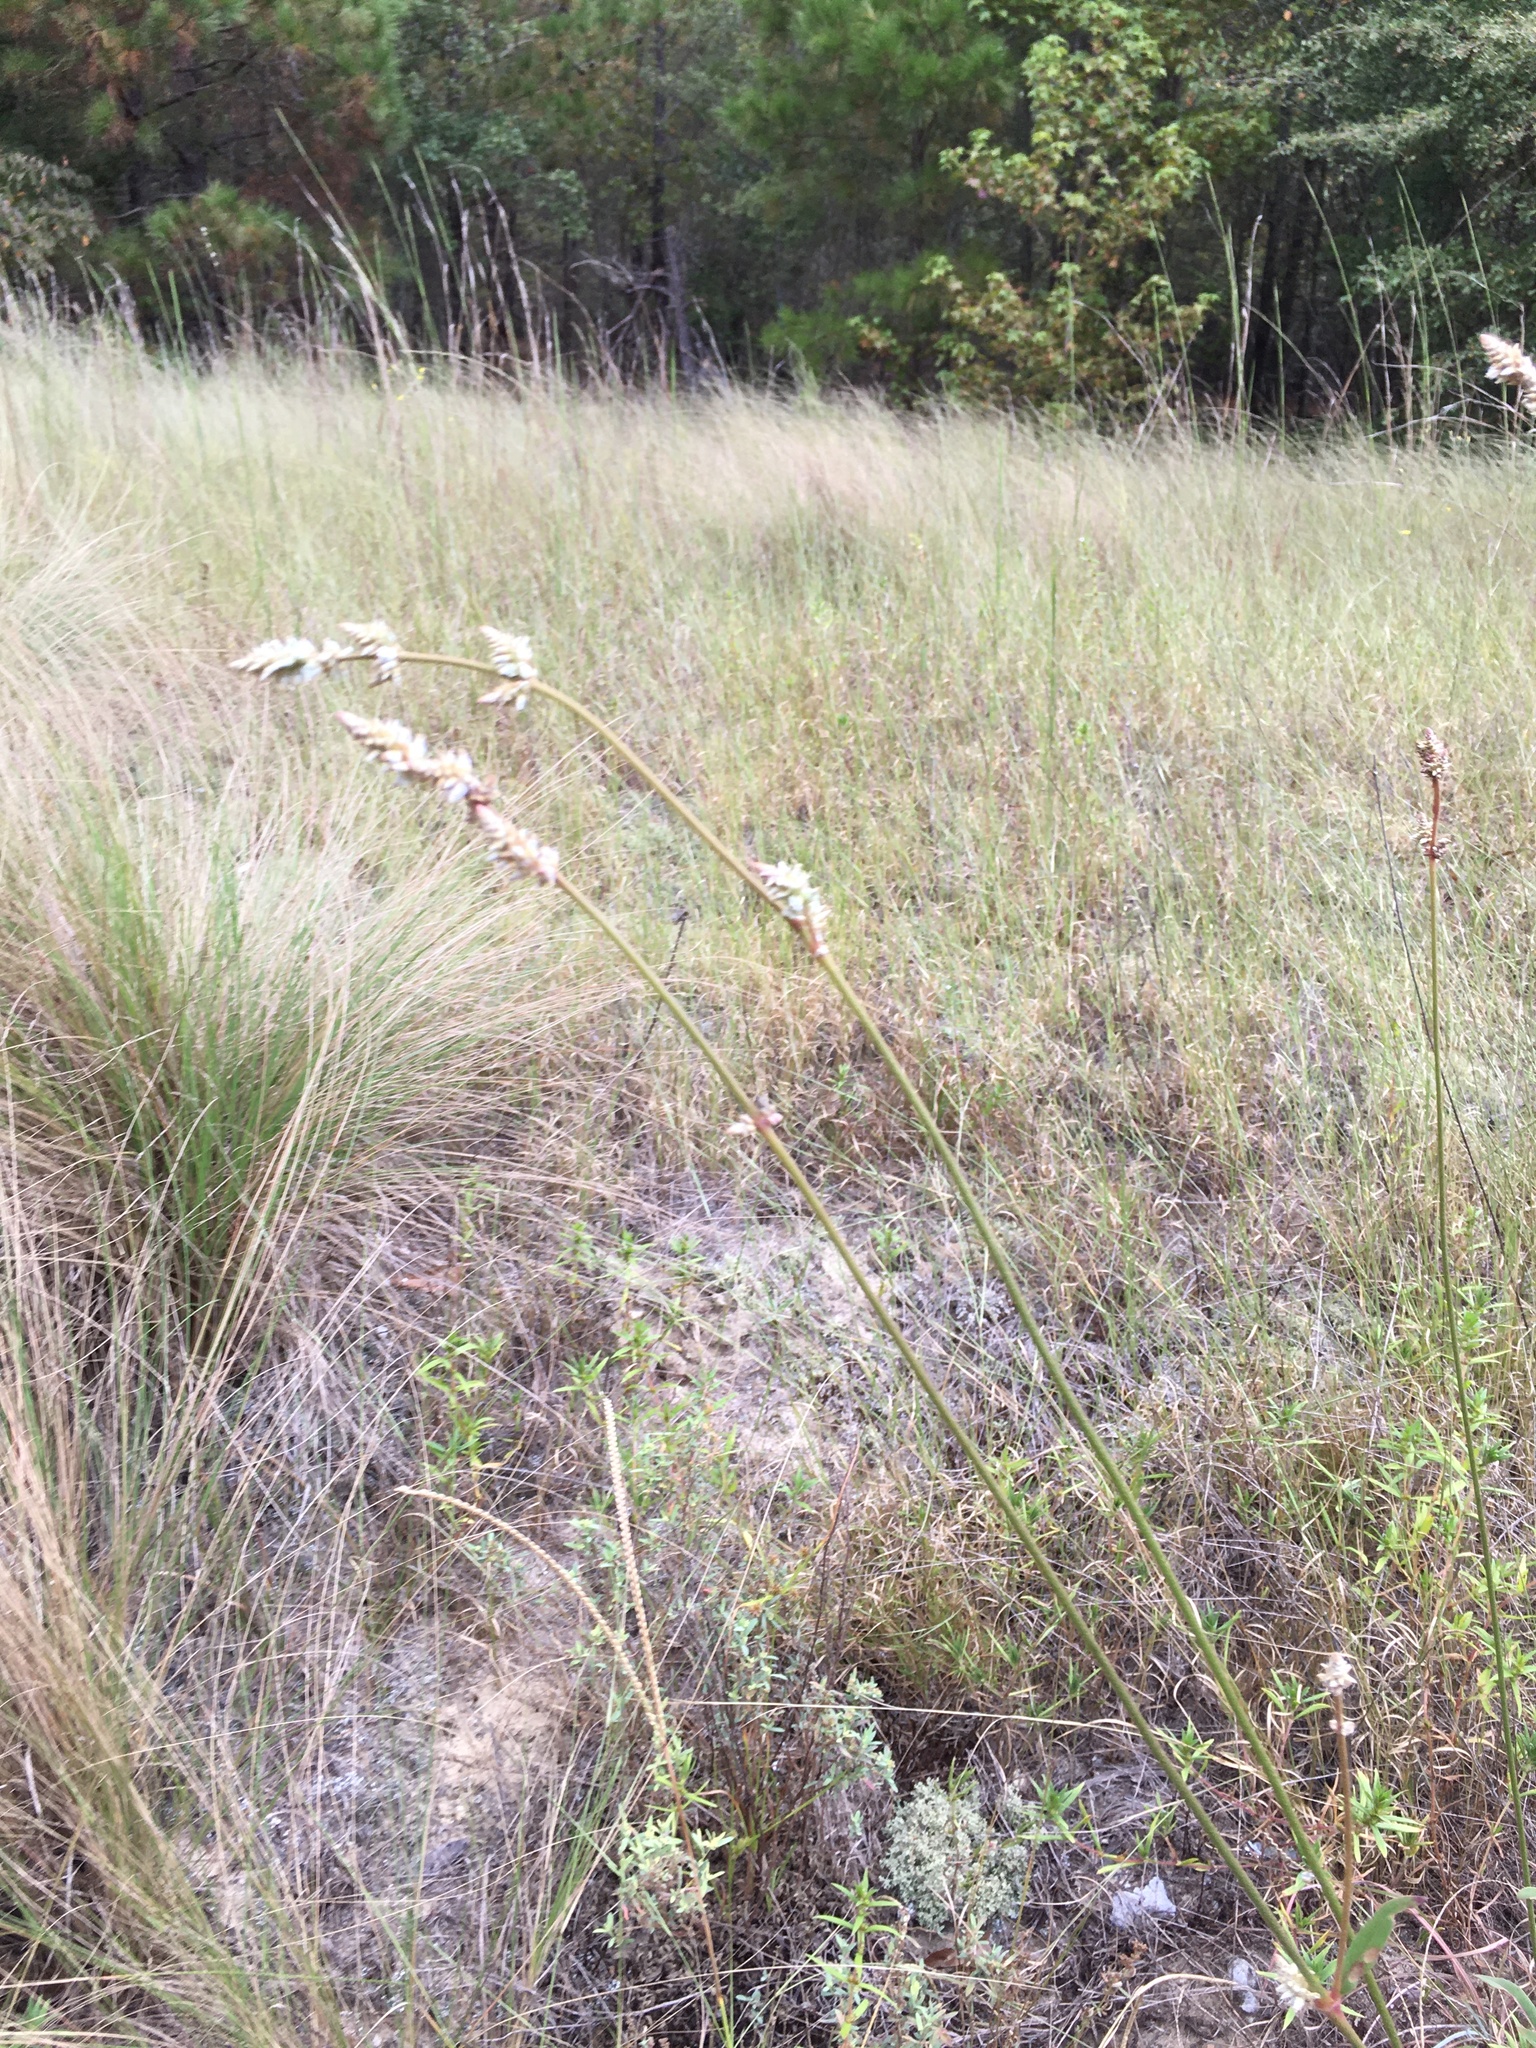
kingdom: Plantae
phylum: Tracheophyta
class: Magnoliopsida
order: Caryophyllales
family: Amaranthaceae
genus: Froelichia
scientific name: Froelichia floridana
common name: Florida snake-cotton
